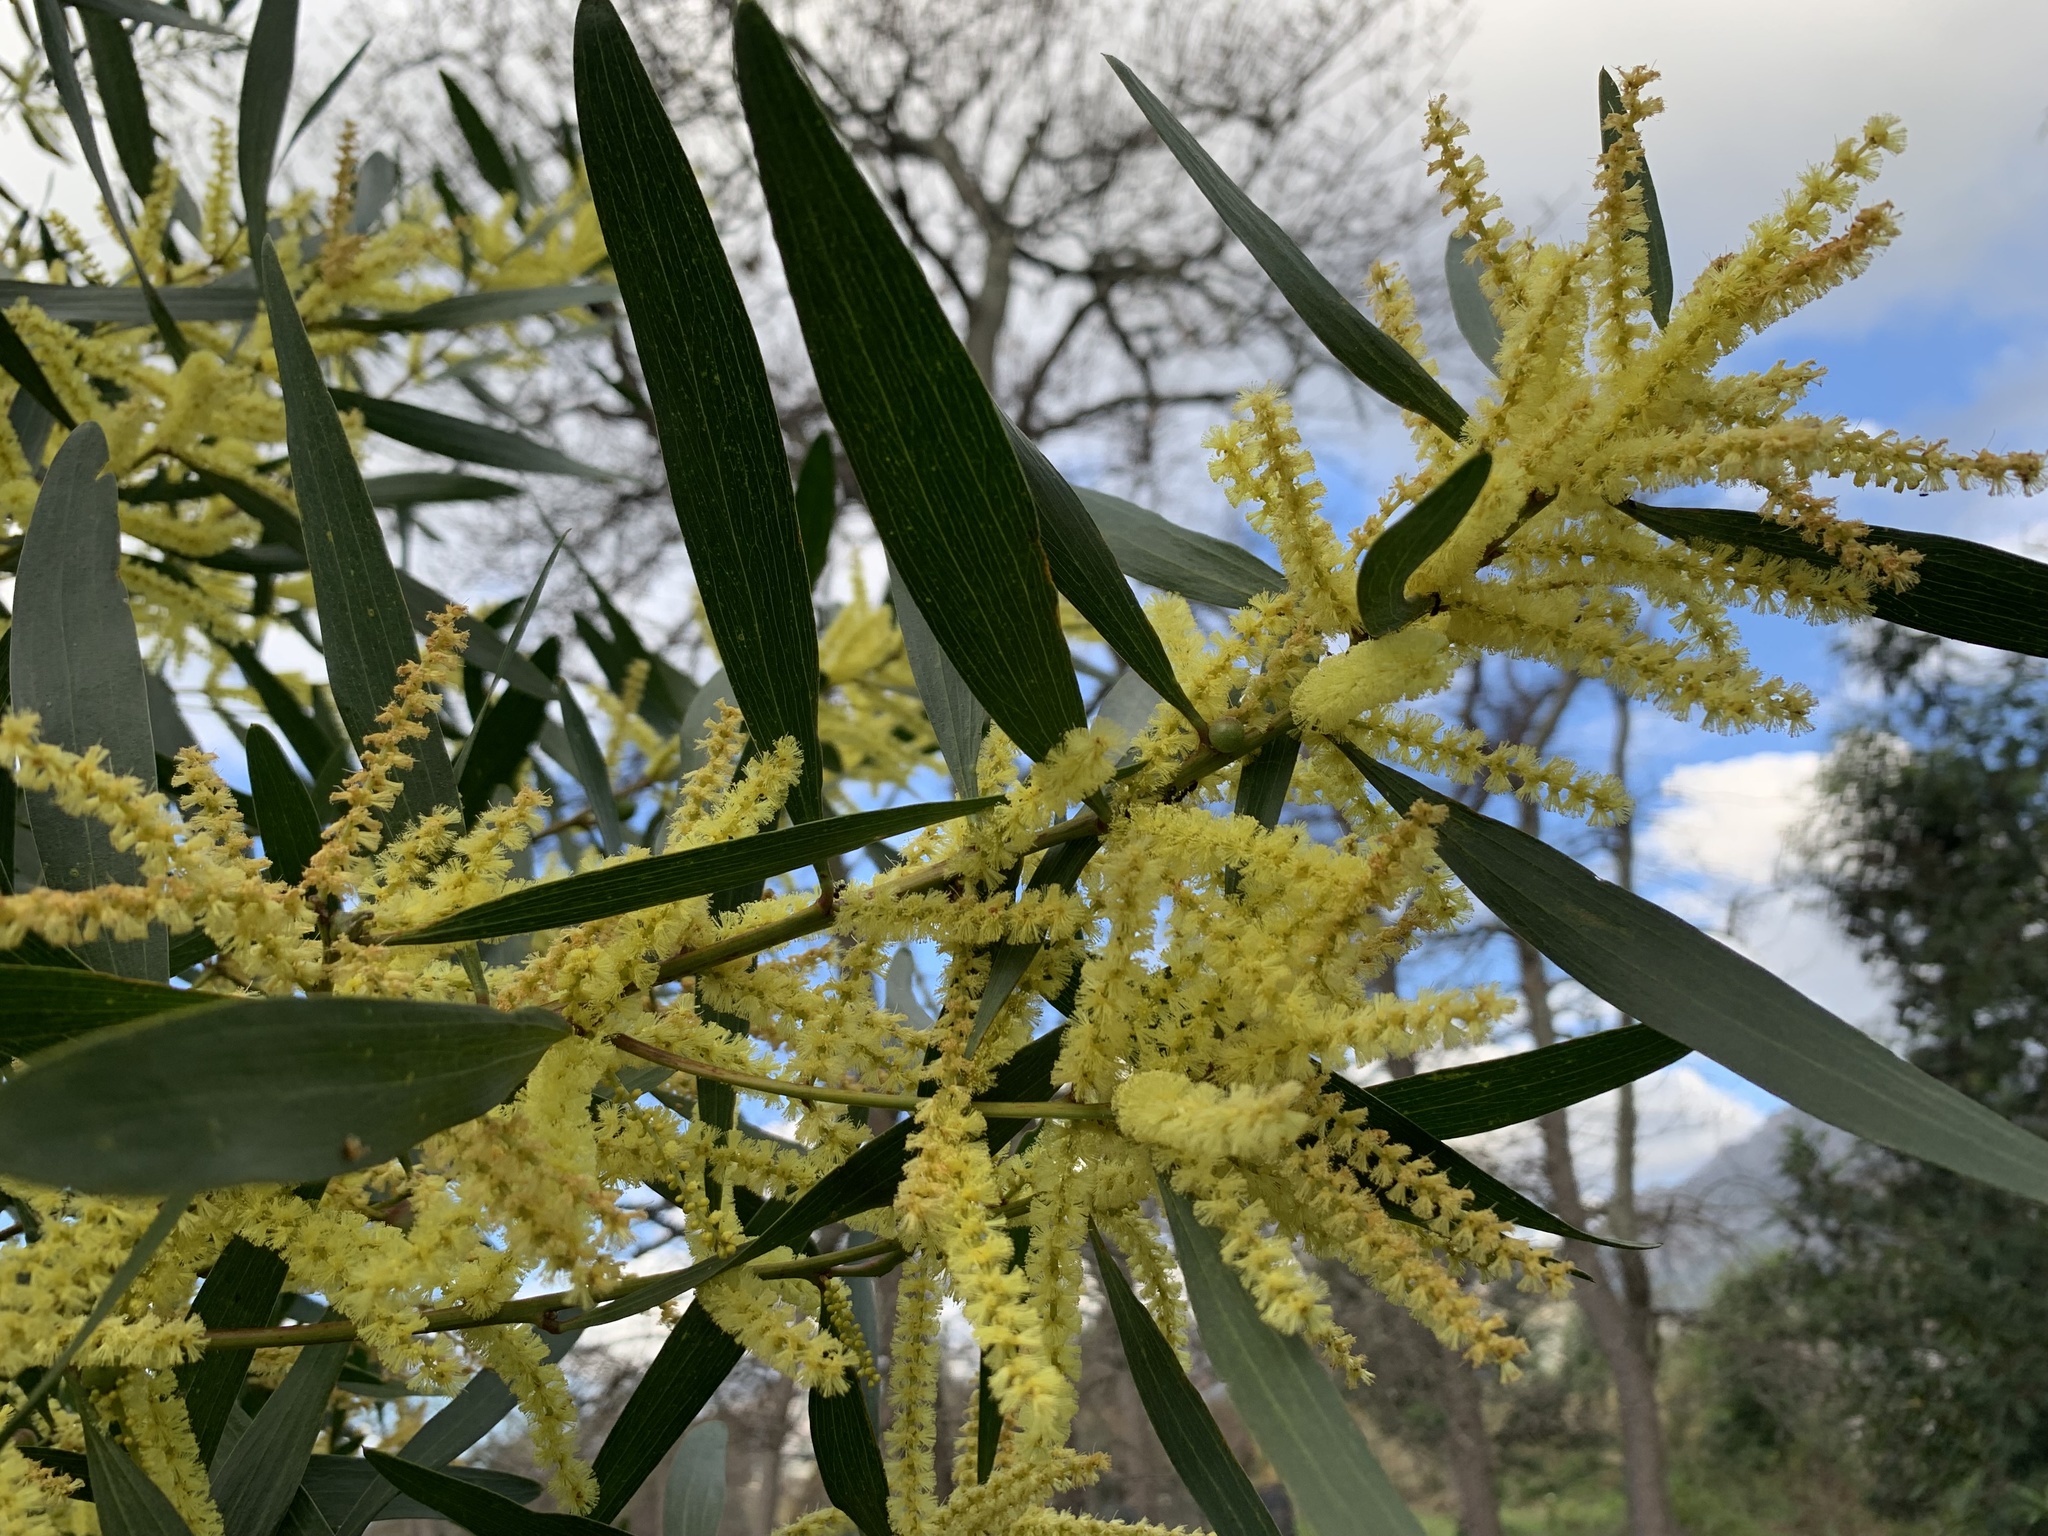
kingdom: Plantae
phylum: Tracheophyta
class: Magnoliopsida
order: Fabales
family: Fabaceae
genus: Acacia
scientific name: Acacia longifolia
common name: Sydney golden wattle
